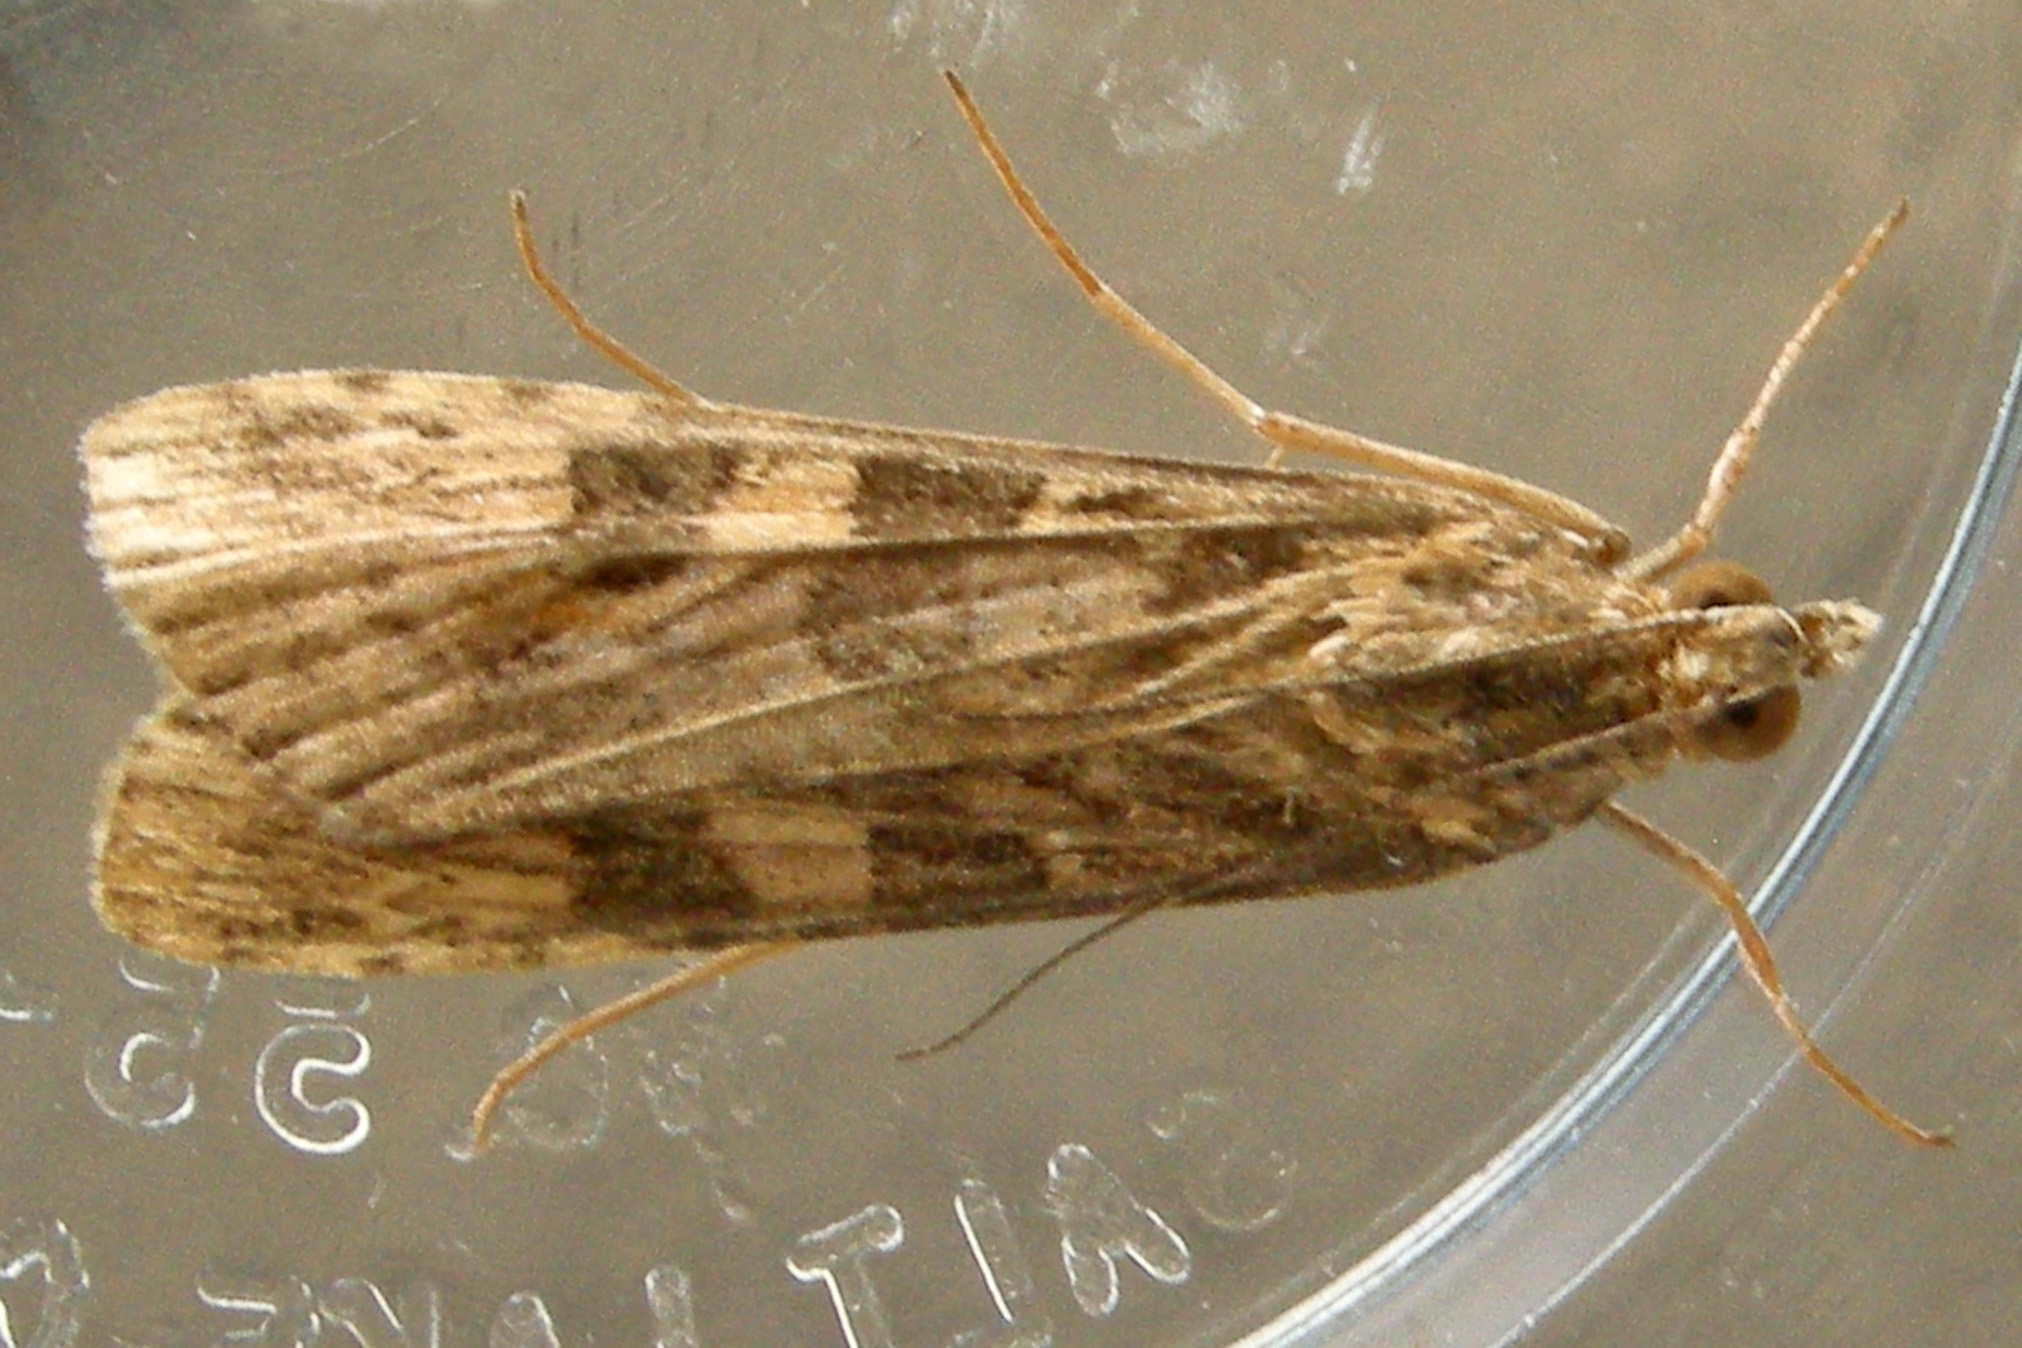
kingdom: Animalia
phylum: Arthropoda
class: Insecta
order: Lepidoptera
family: Crambidae
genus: Nomophila
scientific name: Nomophila nearctica
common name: American rush veneer
